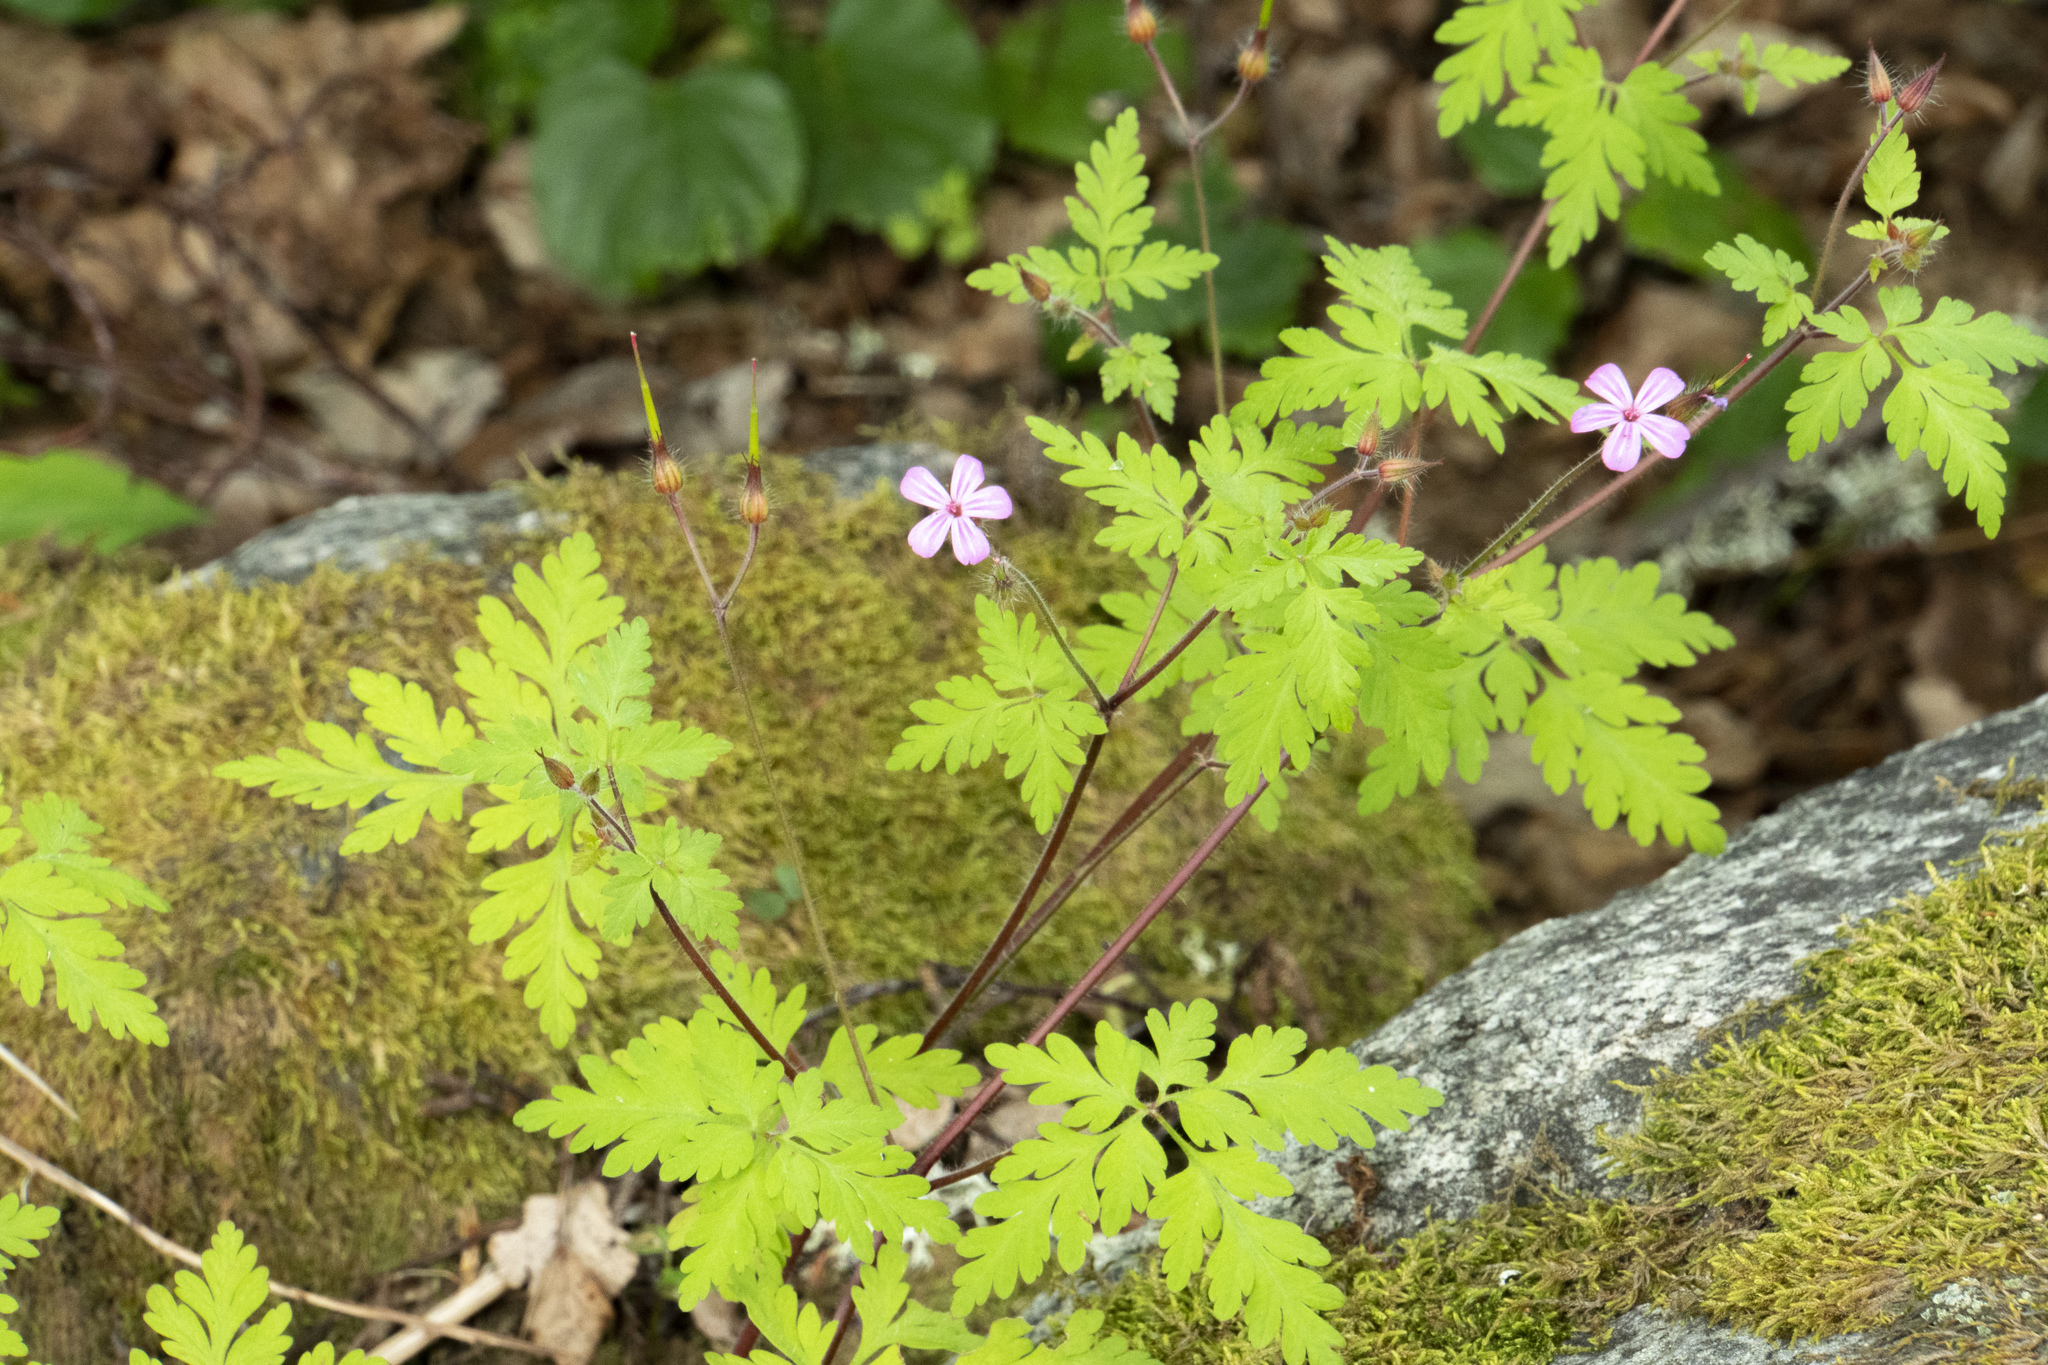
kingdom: Plantae
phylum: Tracheophyta
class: Magnoliopsida
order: Geraniales
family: Geraniaceae
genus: Geranium
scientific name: Geranium robertianum
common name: Herb-robert
